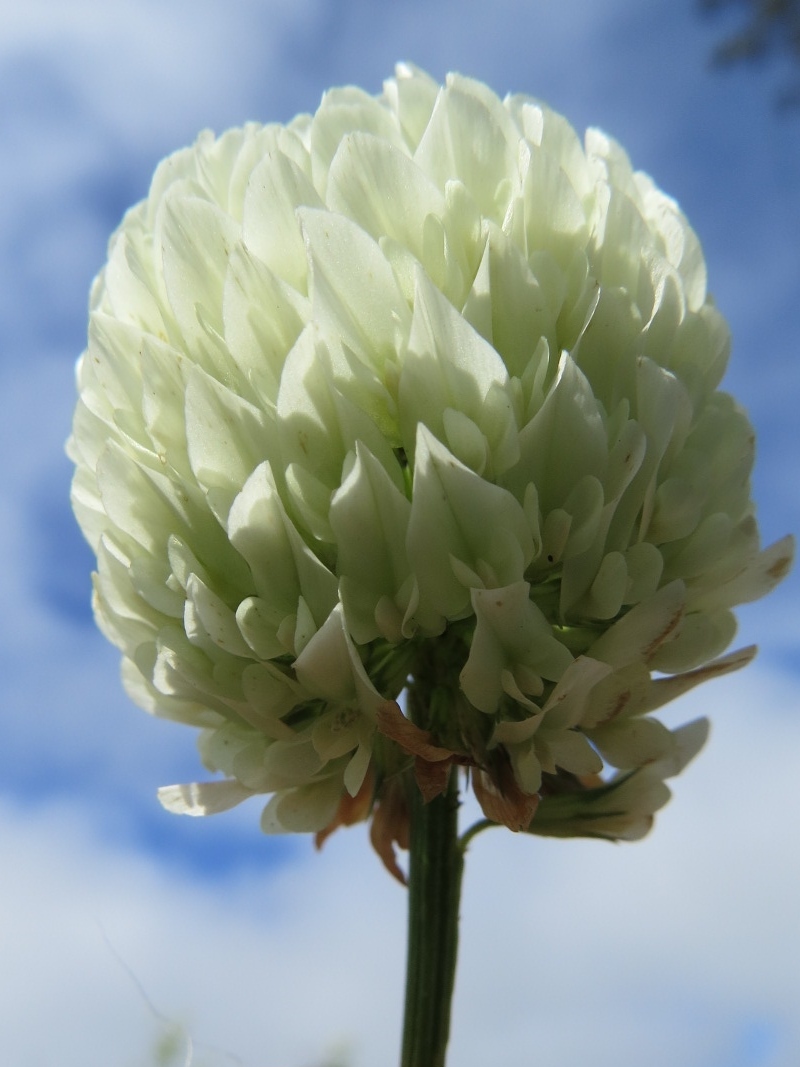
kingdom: Plantae
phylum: Tracheophyta
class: Magnoliopsida
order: Fabales
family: Fabaceae
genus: Trifolium
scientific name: Trifolium repens
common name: White clover
